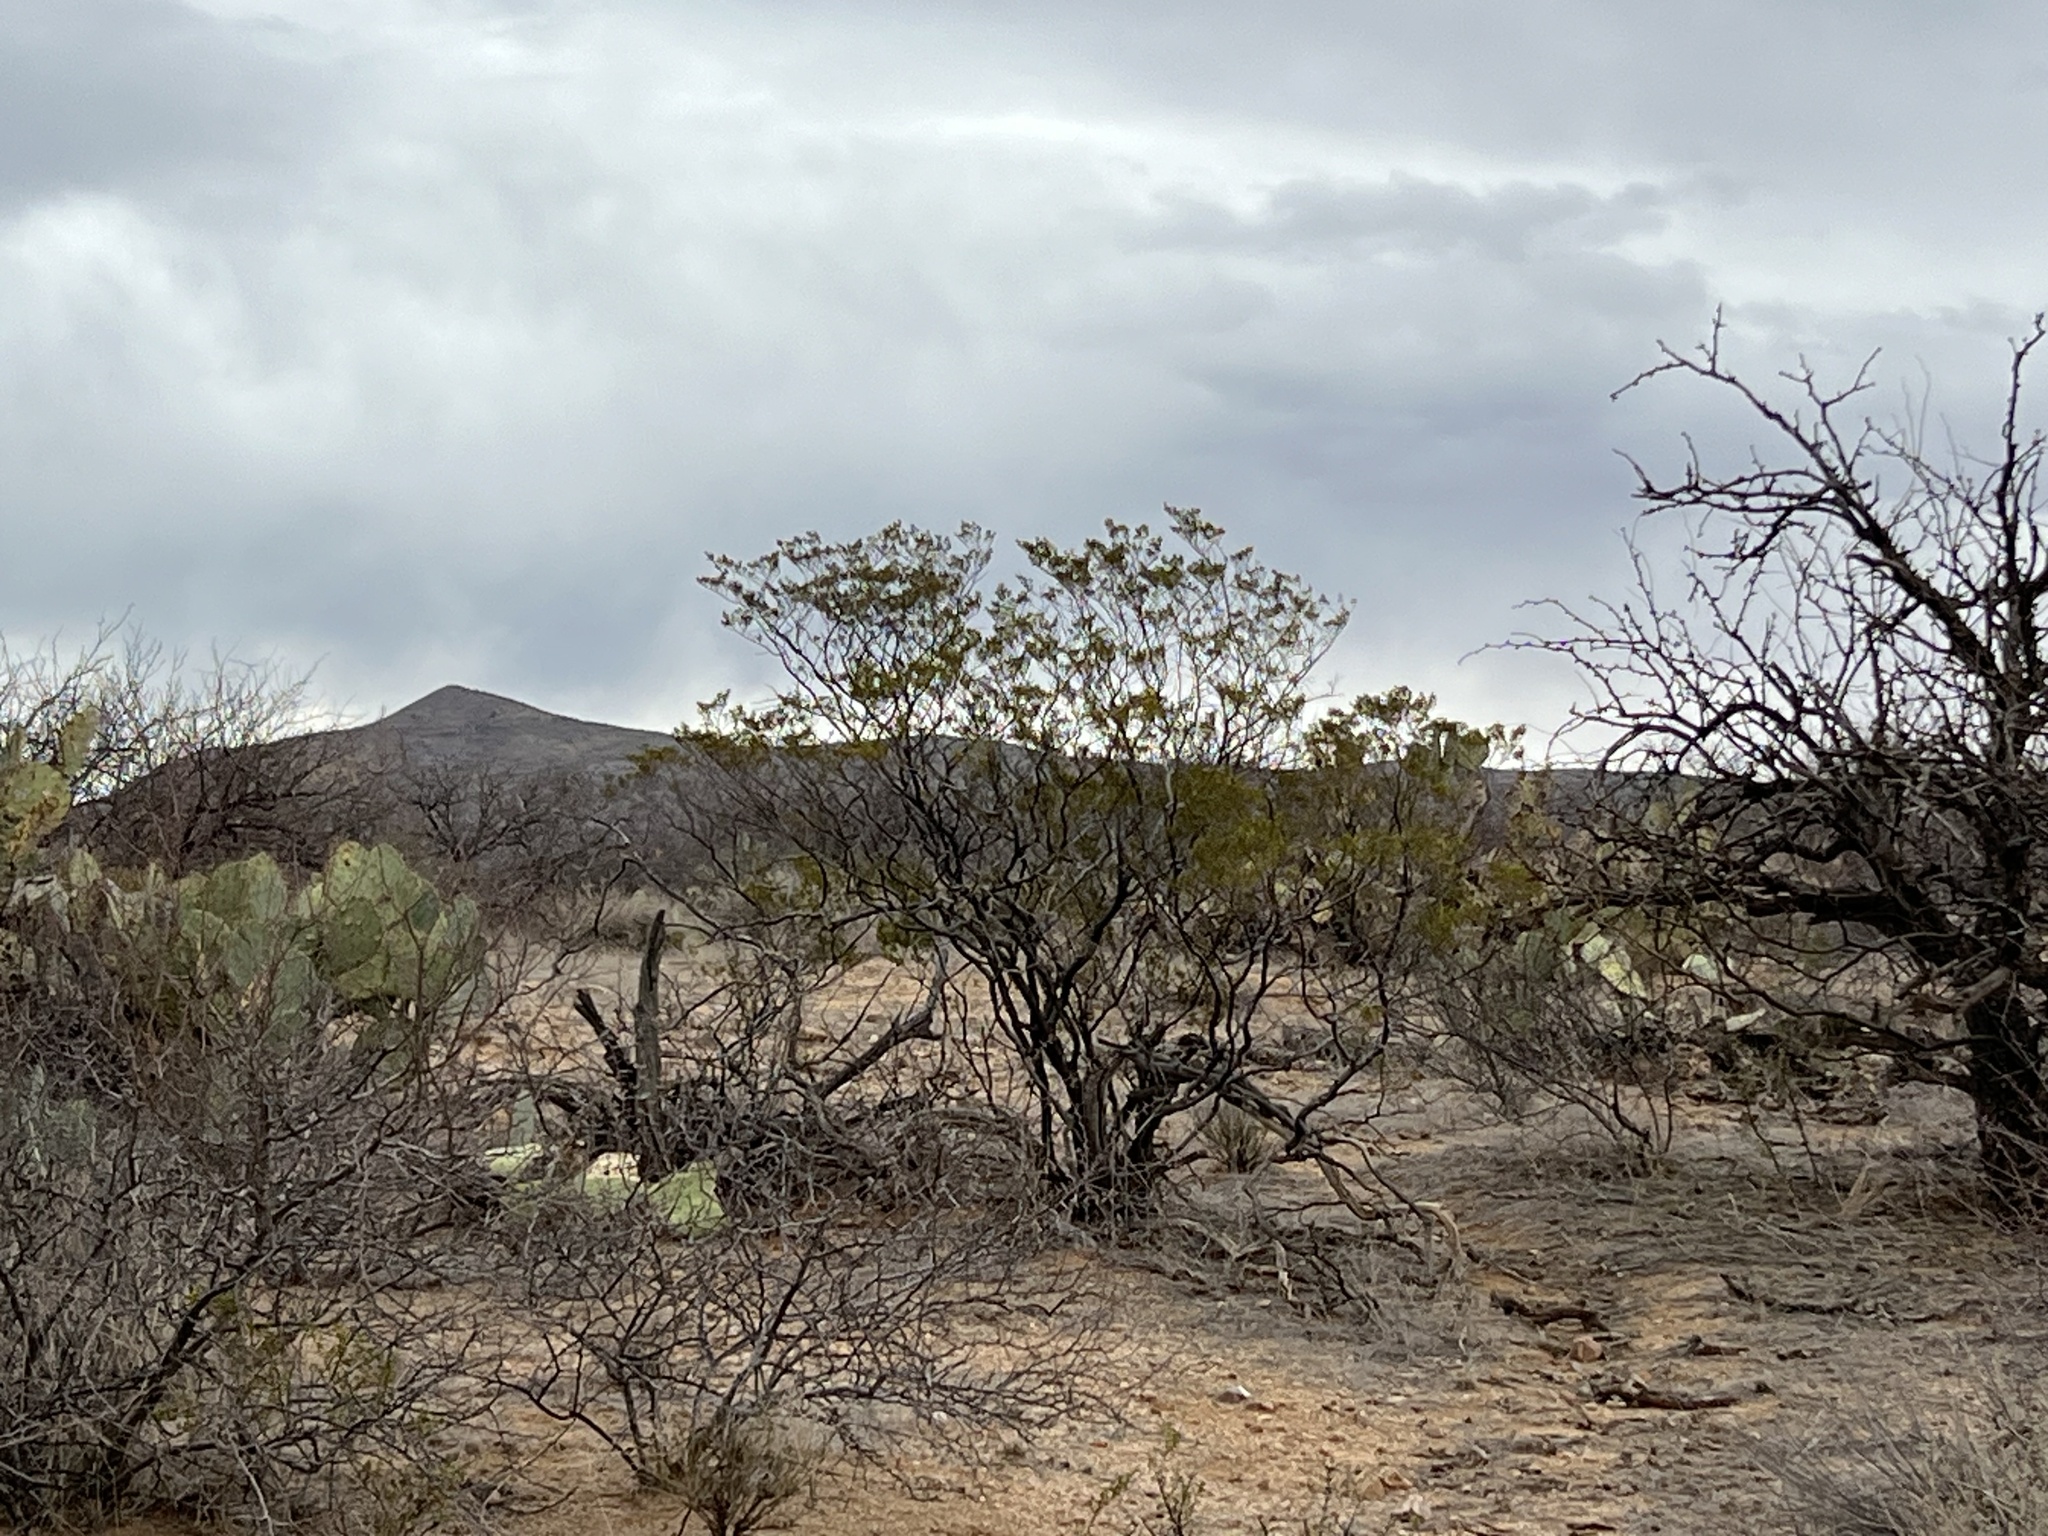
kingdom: Plantae
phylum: Tracheophyta
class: Magnoliopsida
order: Zygophyllales
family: Zygophyllaceae
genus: Larrea
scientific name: Larrea tridentata
